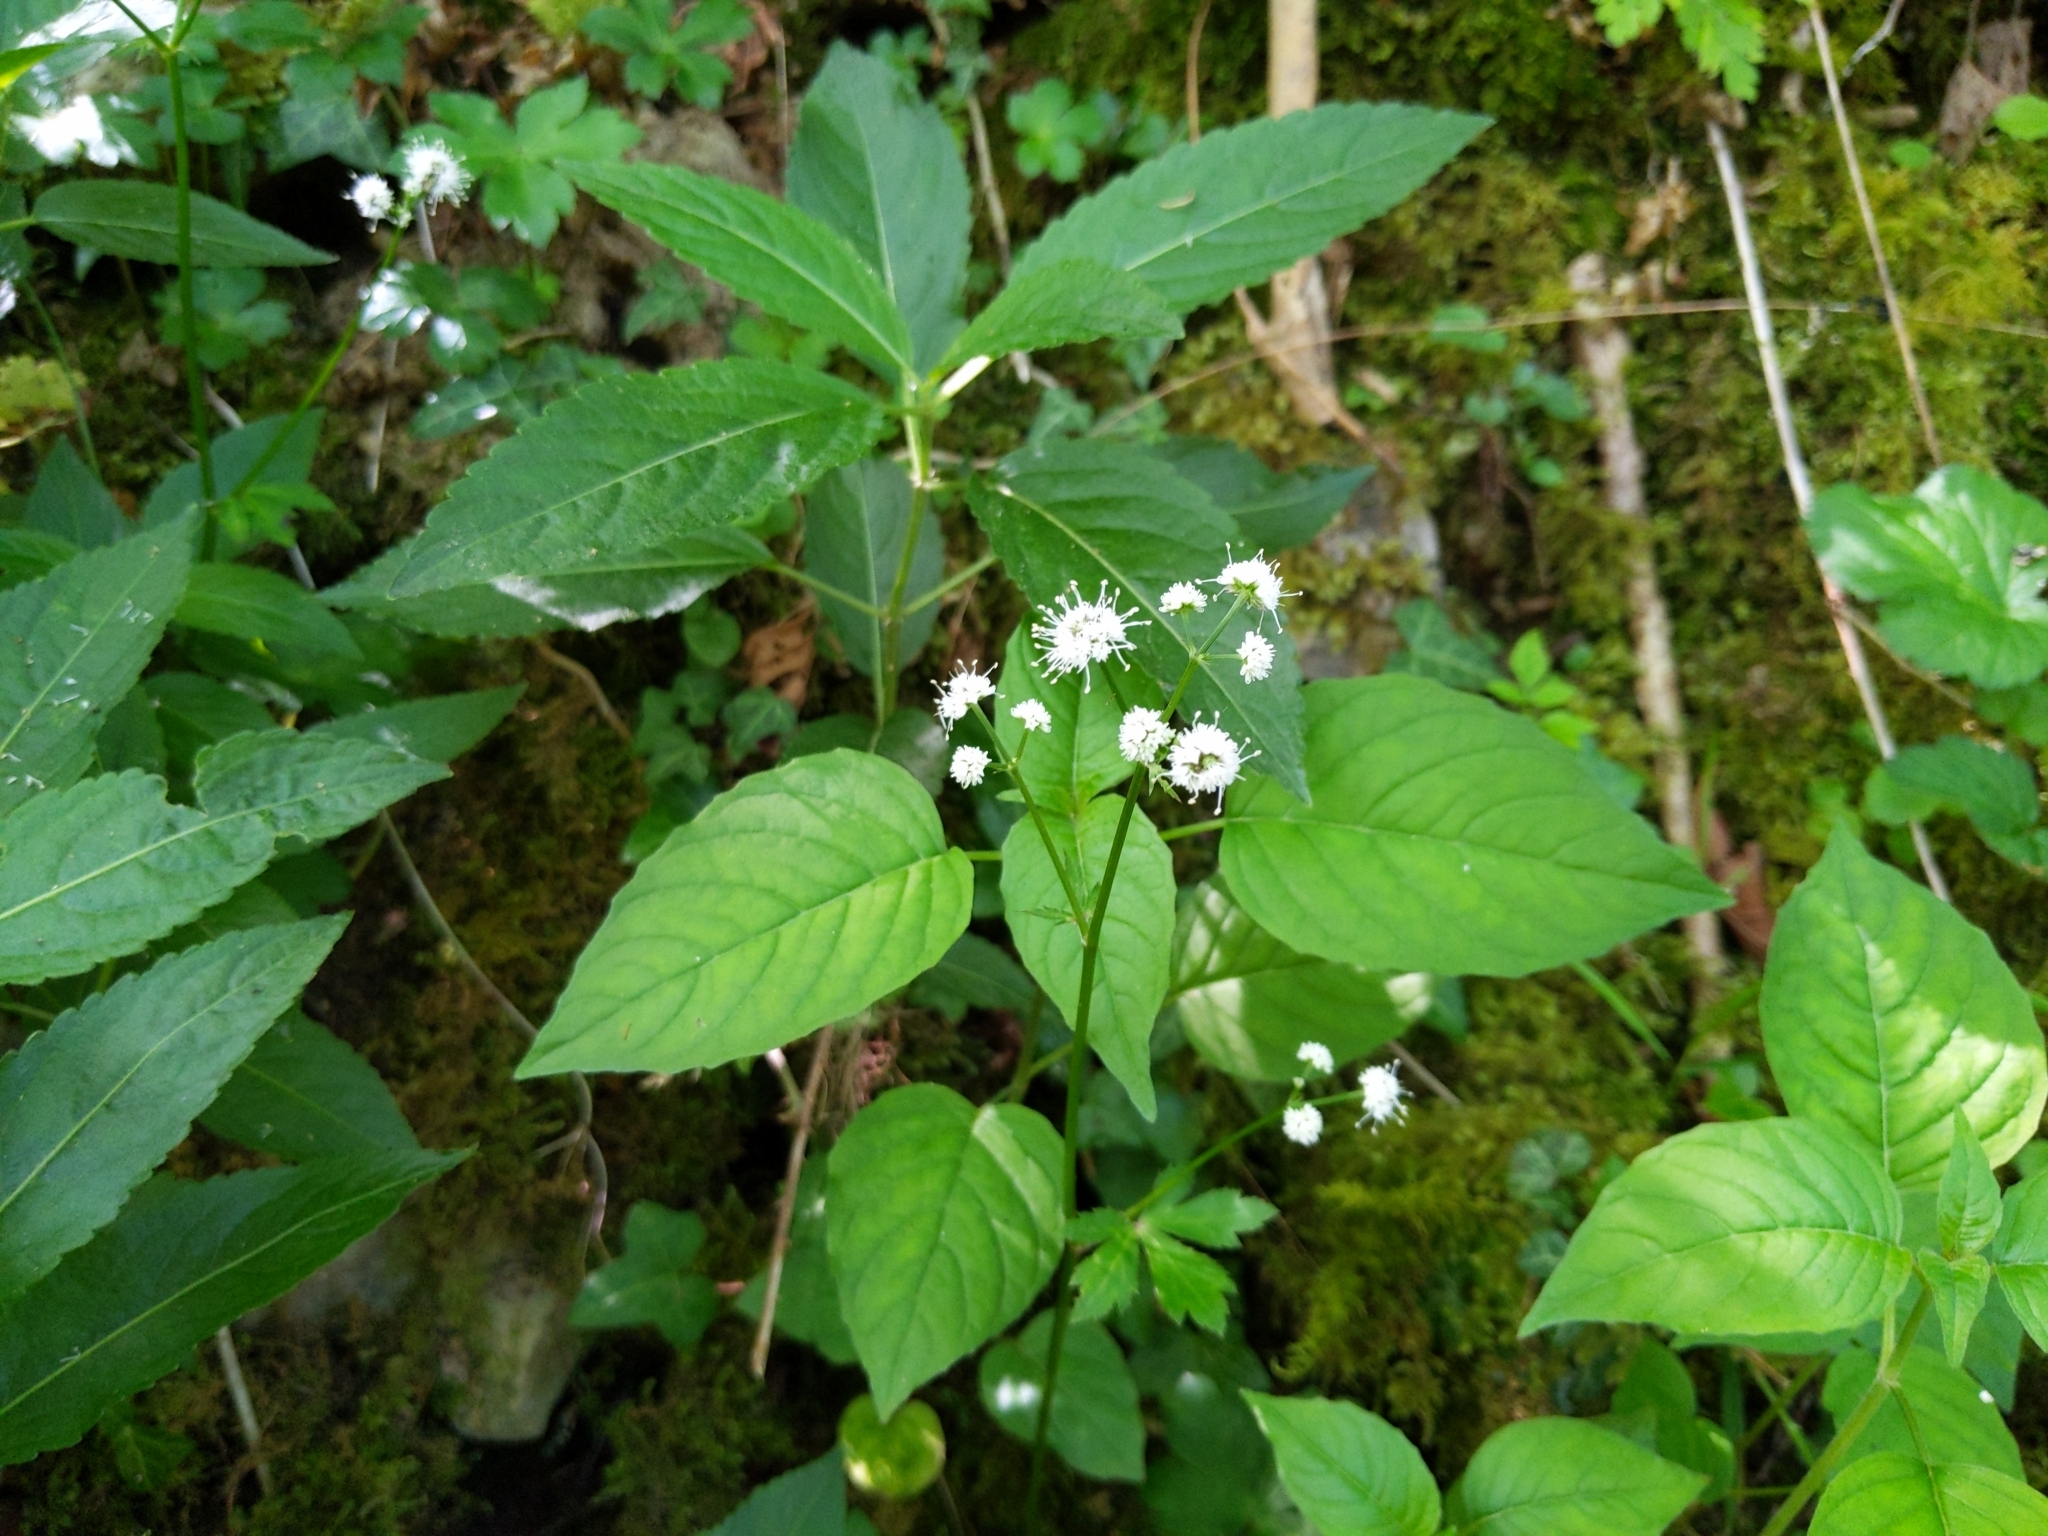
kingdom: Plantae
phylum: Tracheophyta
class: Magnoliopsida
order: Apiales
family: Apiaceae
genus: Sanicula
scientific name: Sanicula europaea
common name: Sanicle
